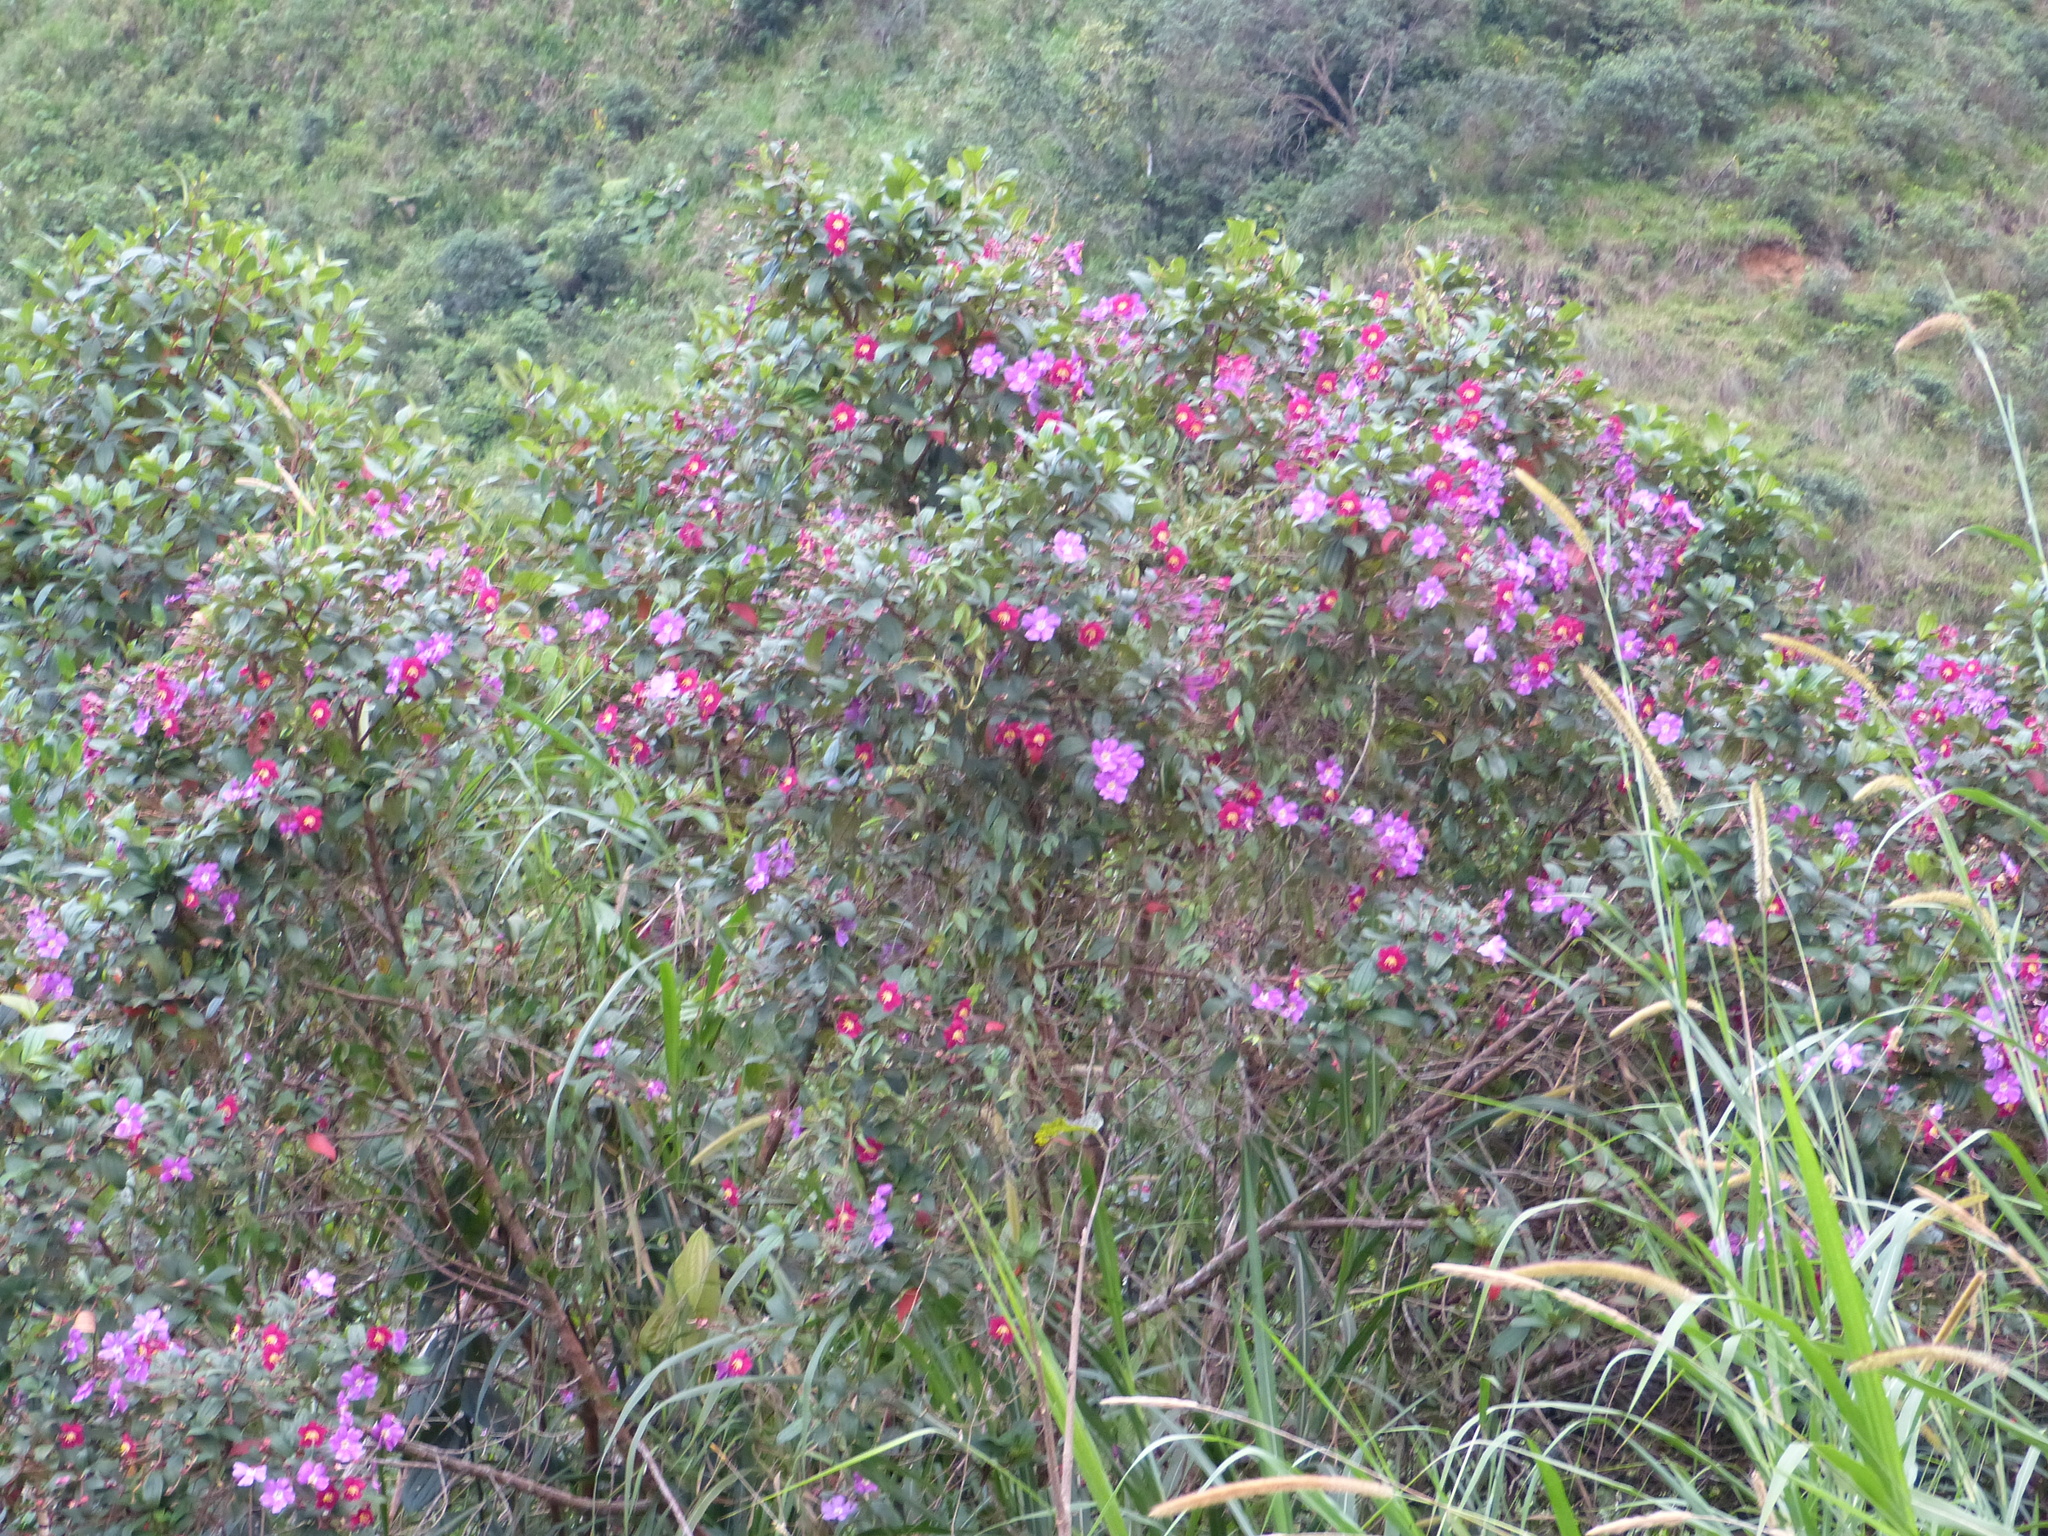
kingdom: Plantae
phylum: Tracheophyta
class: Magnoliopsida
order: Myrtales
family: Melastomataceae
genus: Andesanthus
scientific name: Andesanthus lepidotus
